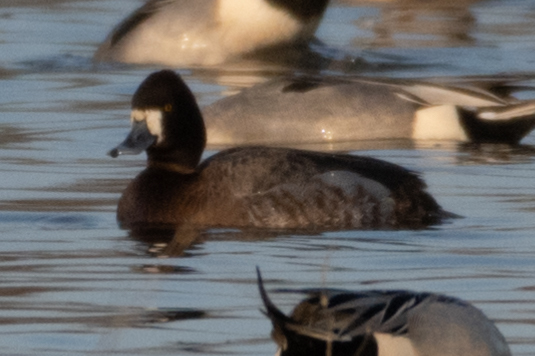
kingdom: Animalia
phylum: Chordata
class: Aves
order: Anseriformes
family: Anatidae
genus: Aythya
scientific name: Aythya affinis
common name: Lesser scaup
